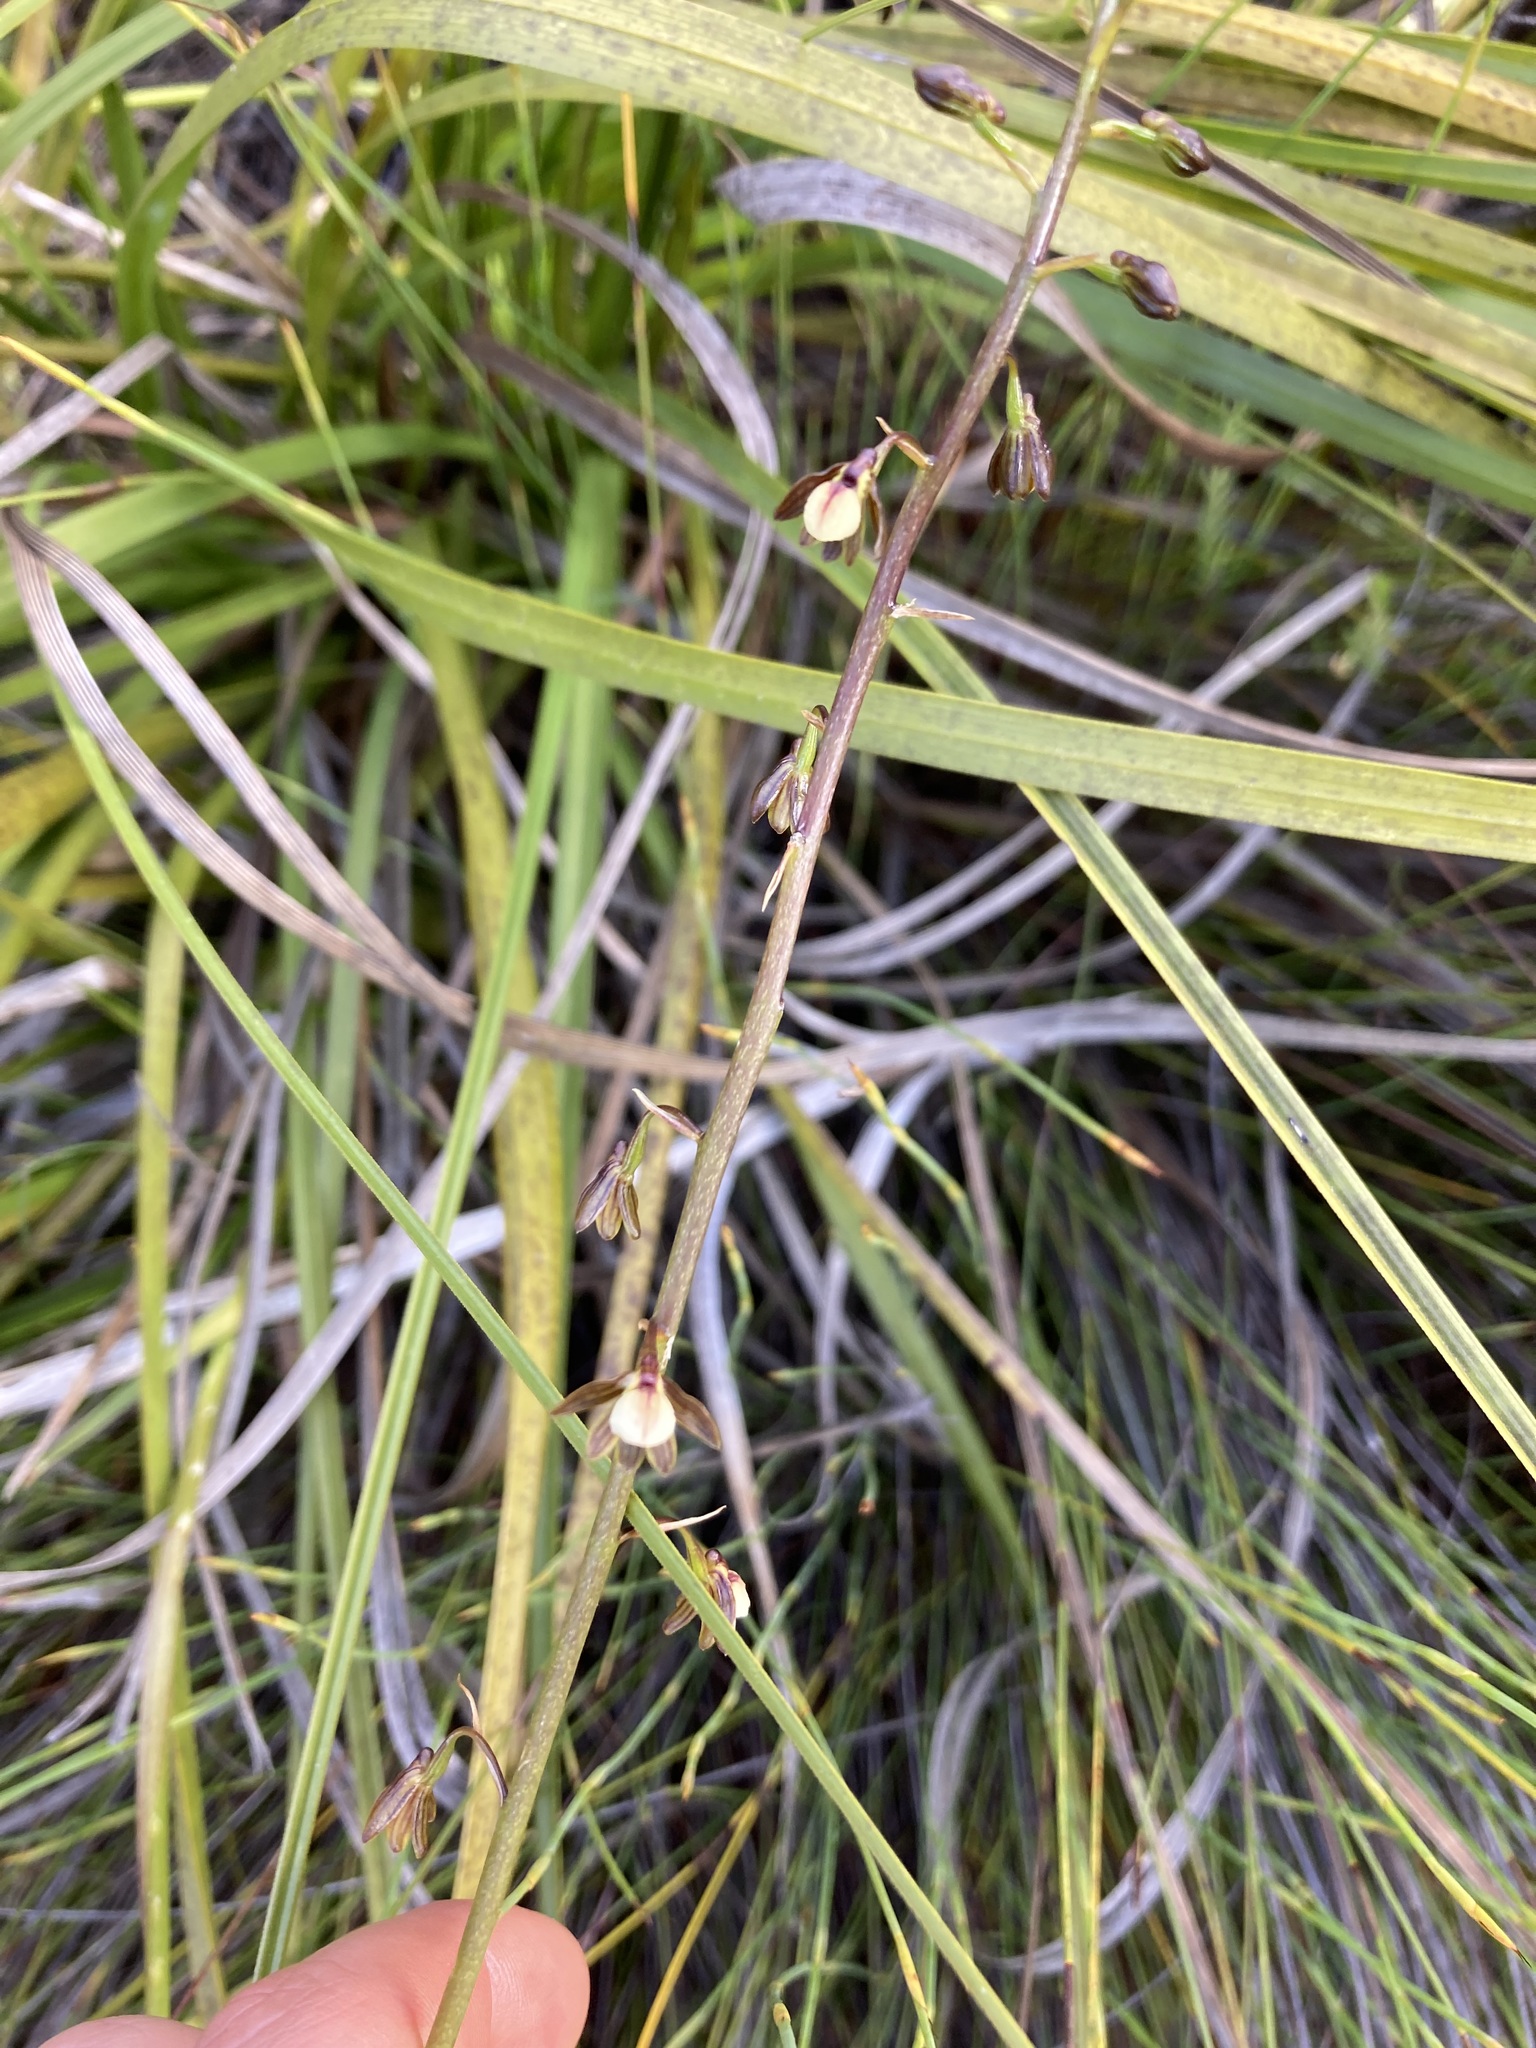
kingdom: Plantae
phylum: Tracheophyta
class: Liliopsida
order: Asparagales
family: Orchidaceae
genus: Eulophia
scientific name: Eulophia cochlearis
